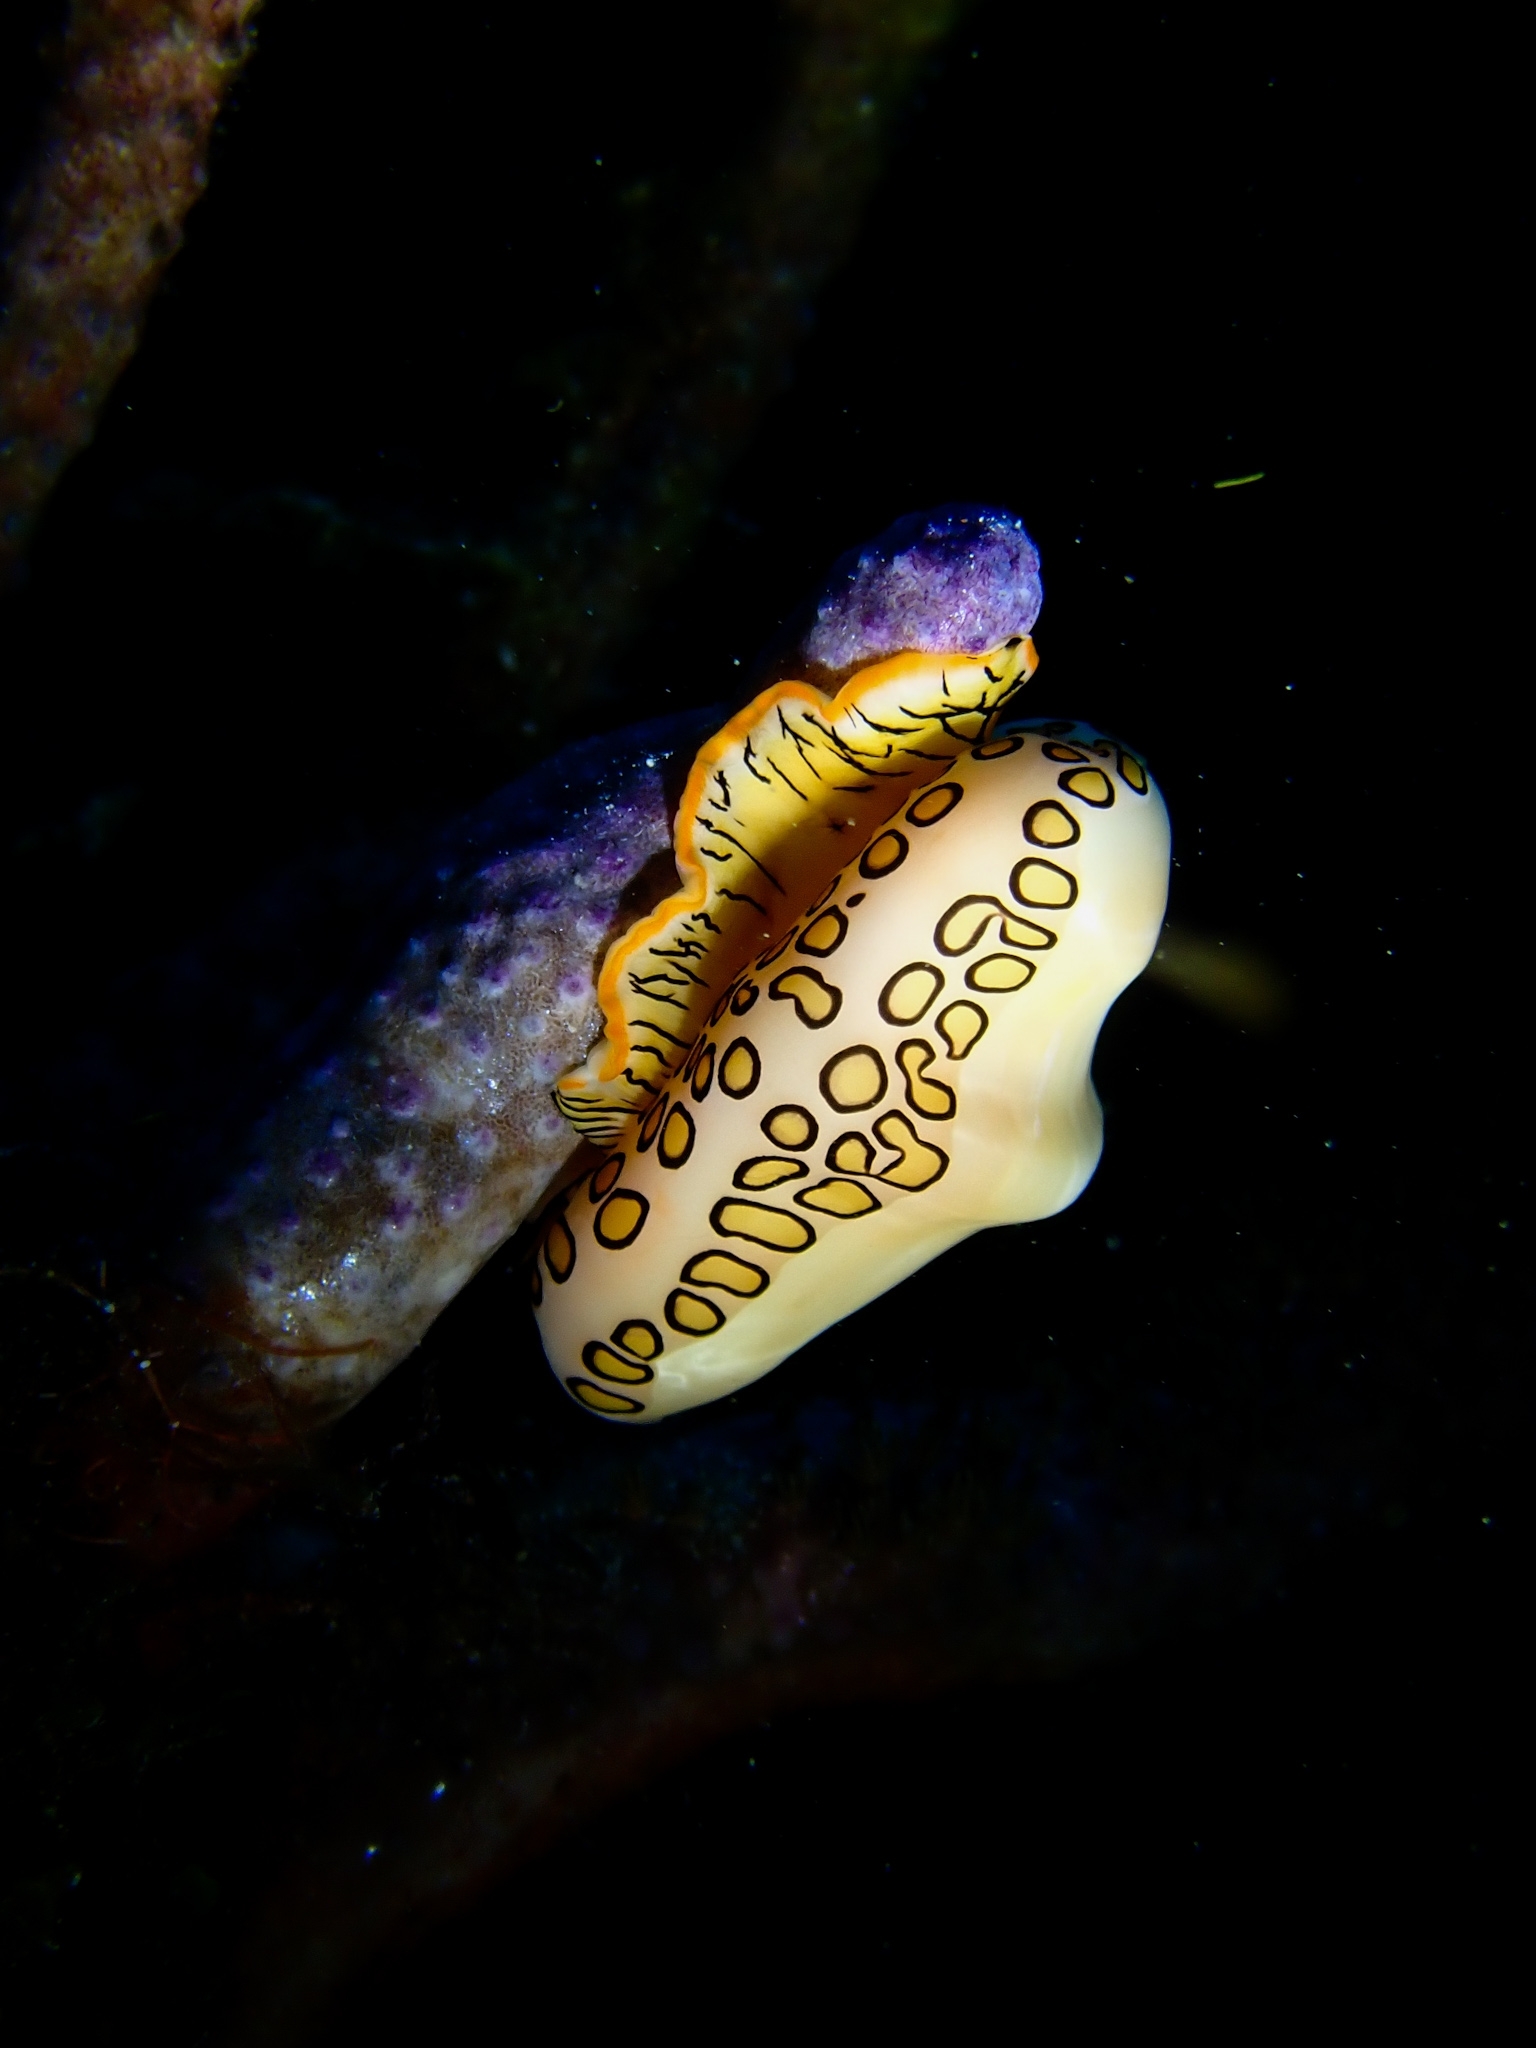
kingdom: Animalia
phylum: Mollusca
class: Gastropoda
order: Littorinimorpha
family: Ovulidae
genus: Cyphoma
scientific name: Cyphoma gibbosum
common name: Flamingo tongue
